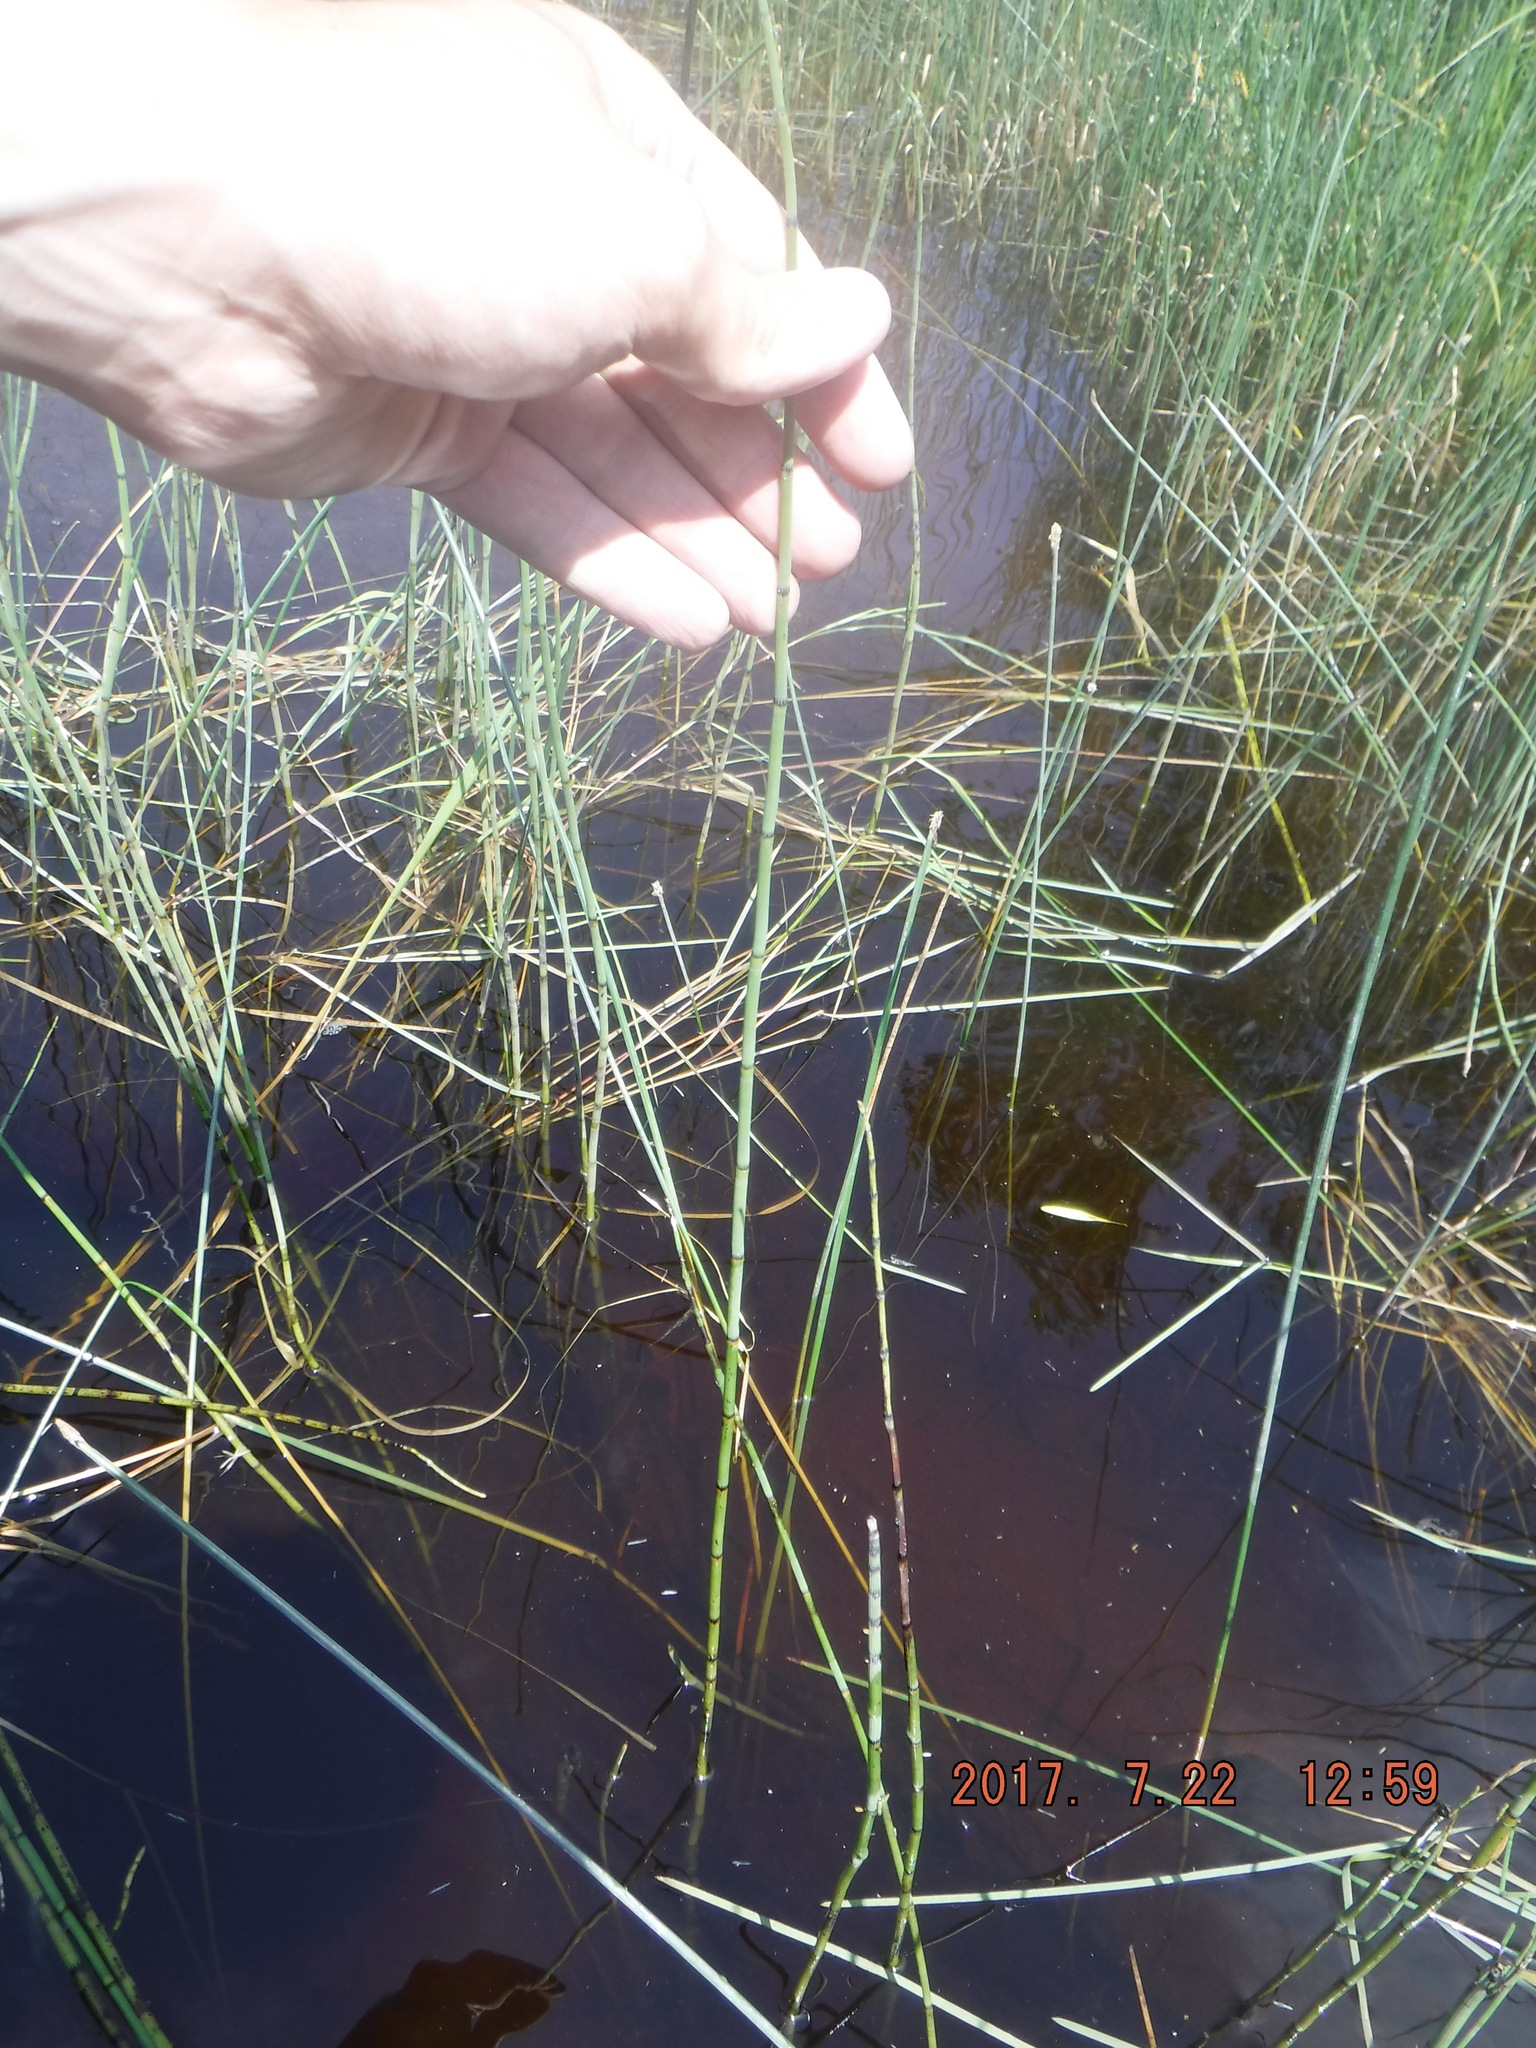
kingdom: Plantae
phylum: Tracheophyta
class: Polypodiopsida
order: Equisetales
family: Equisetaceae
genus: Equisetum
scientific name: Equisetum fluviatile
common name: Water horsetail
